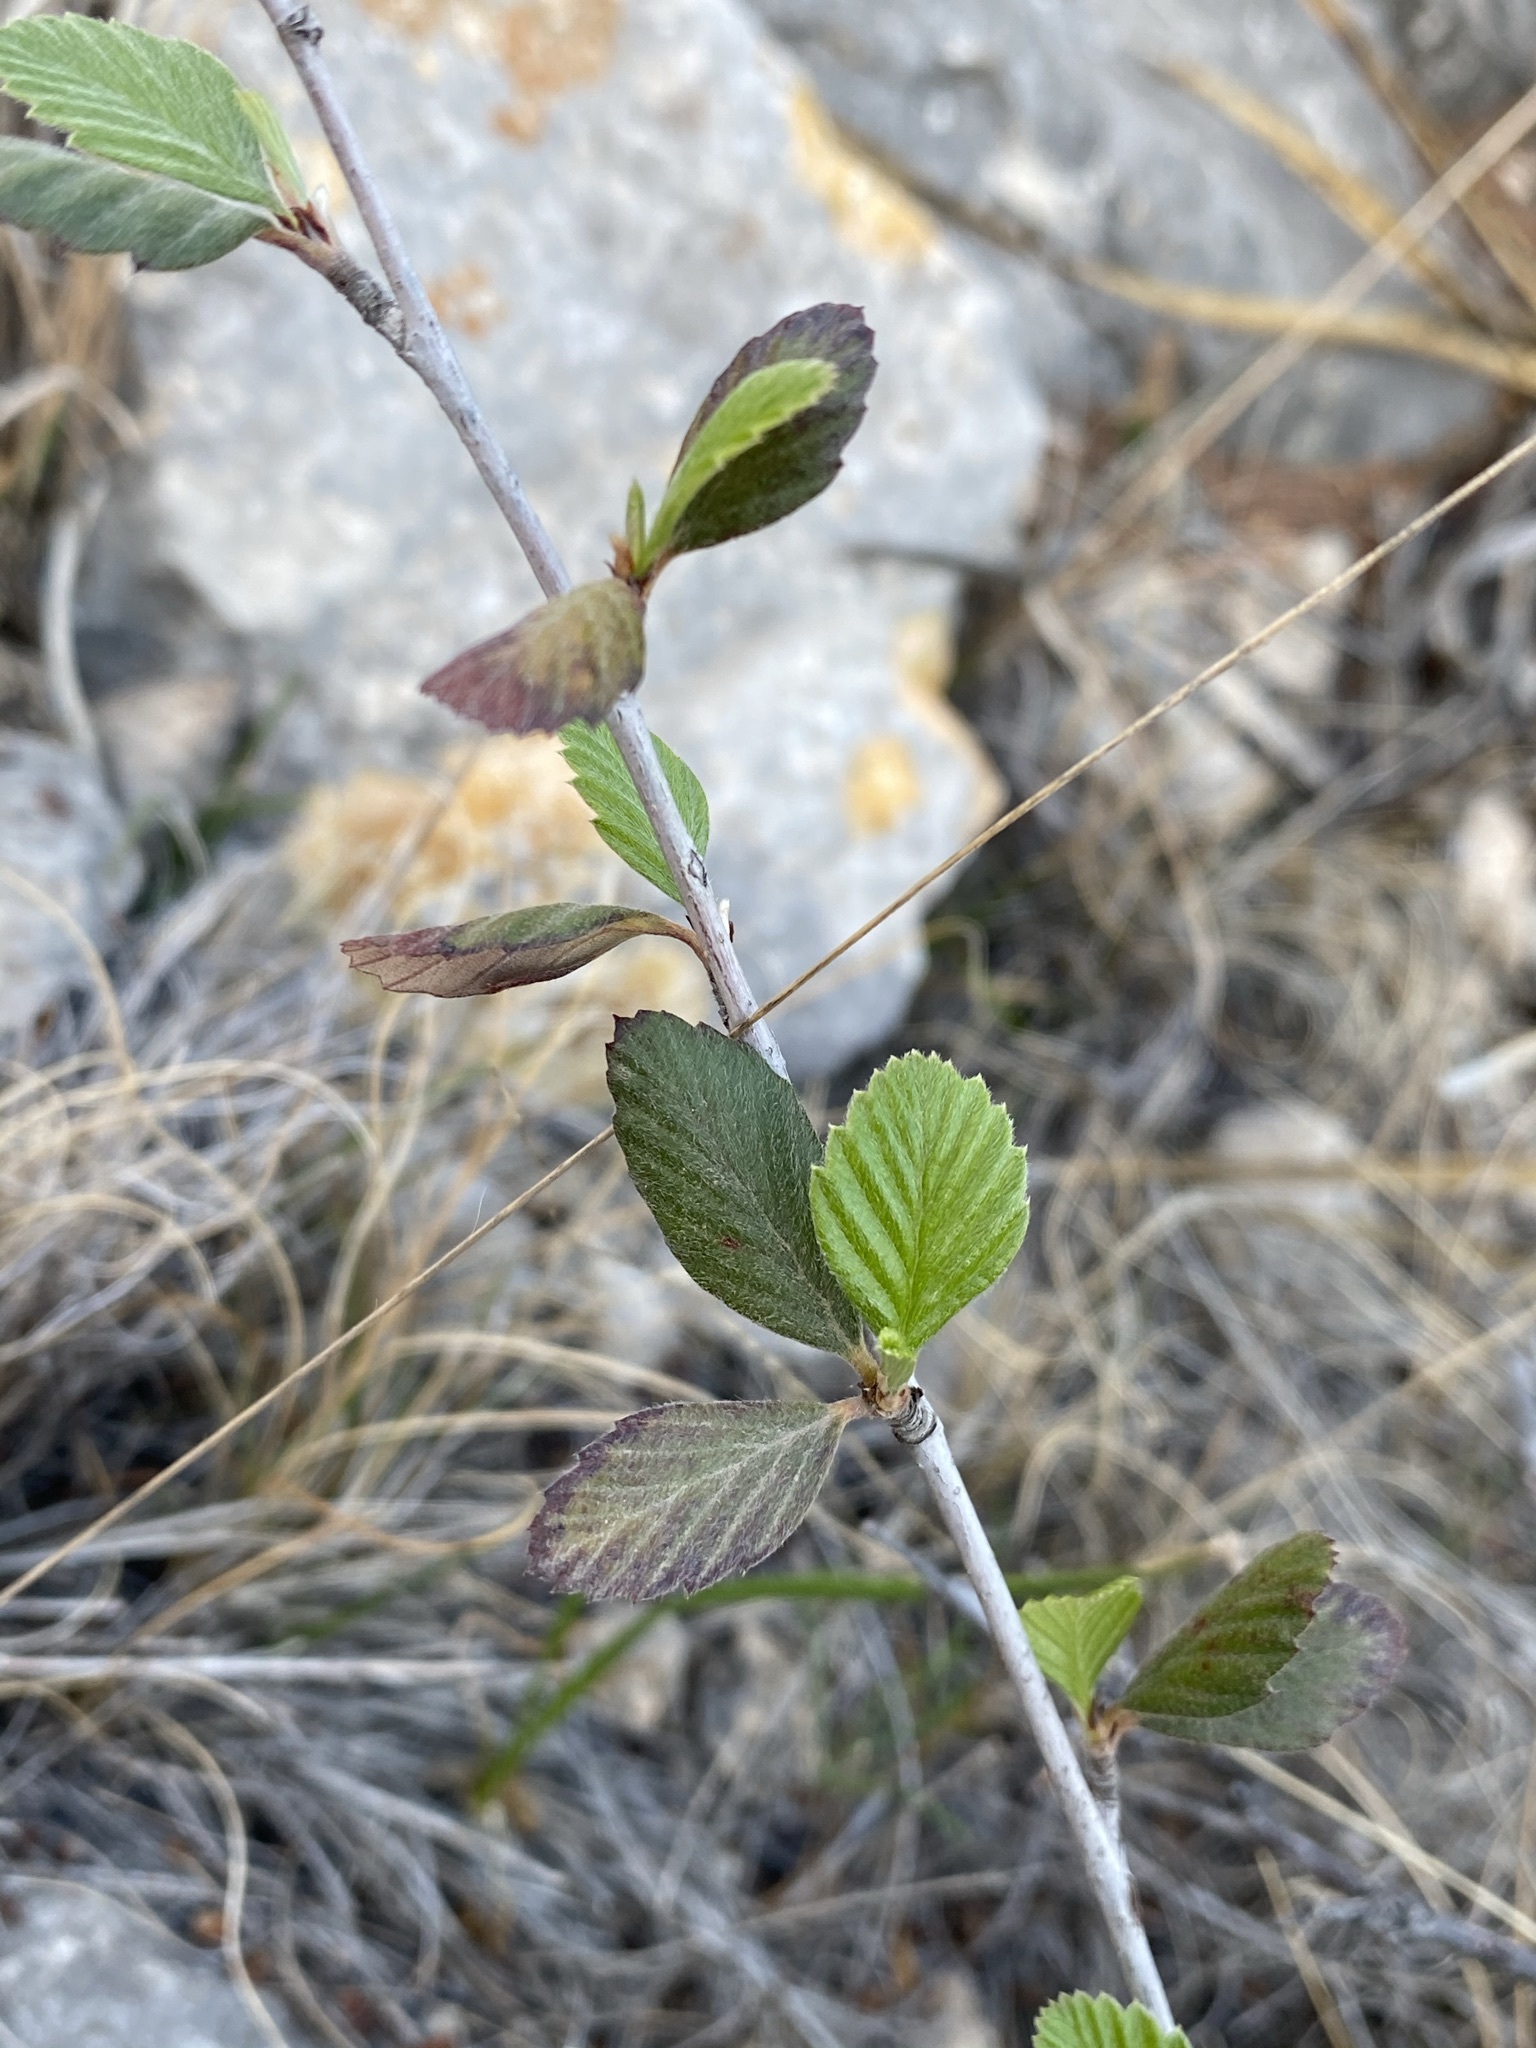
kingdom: Plantae
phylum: Tracheophyta
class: Magnoliopsida
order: Rosales
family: Rosaceae
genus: Cercocarpus
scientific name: Cercocarpus montanus
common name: Alder-leaf cercocarpus
